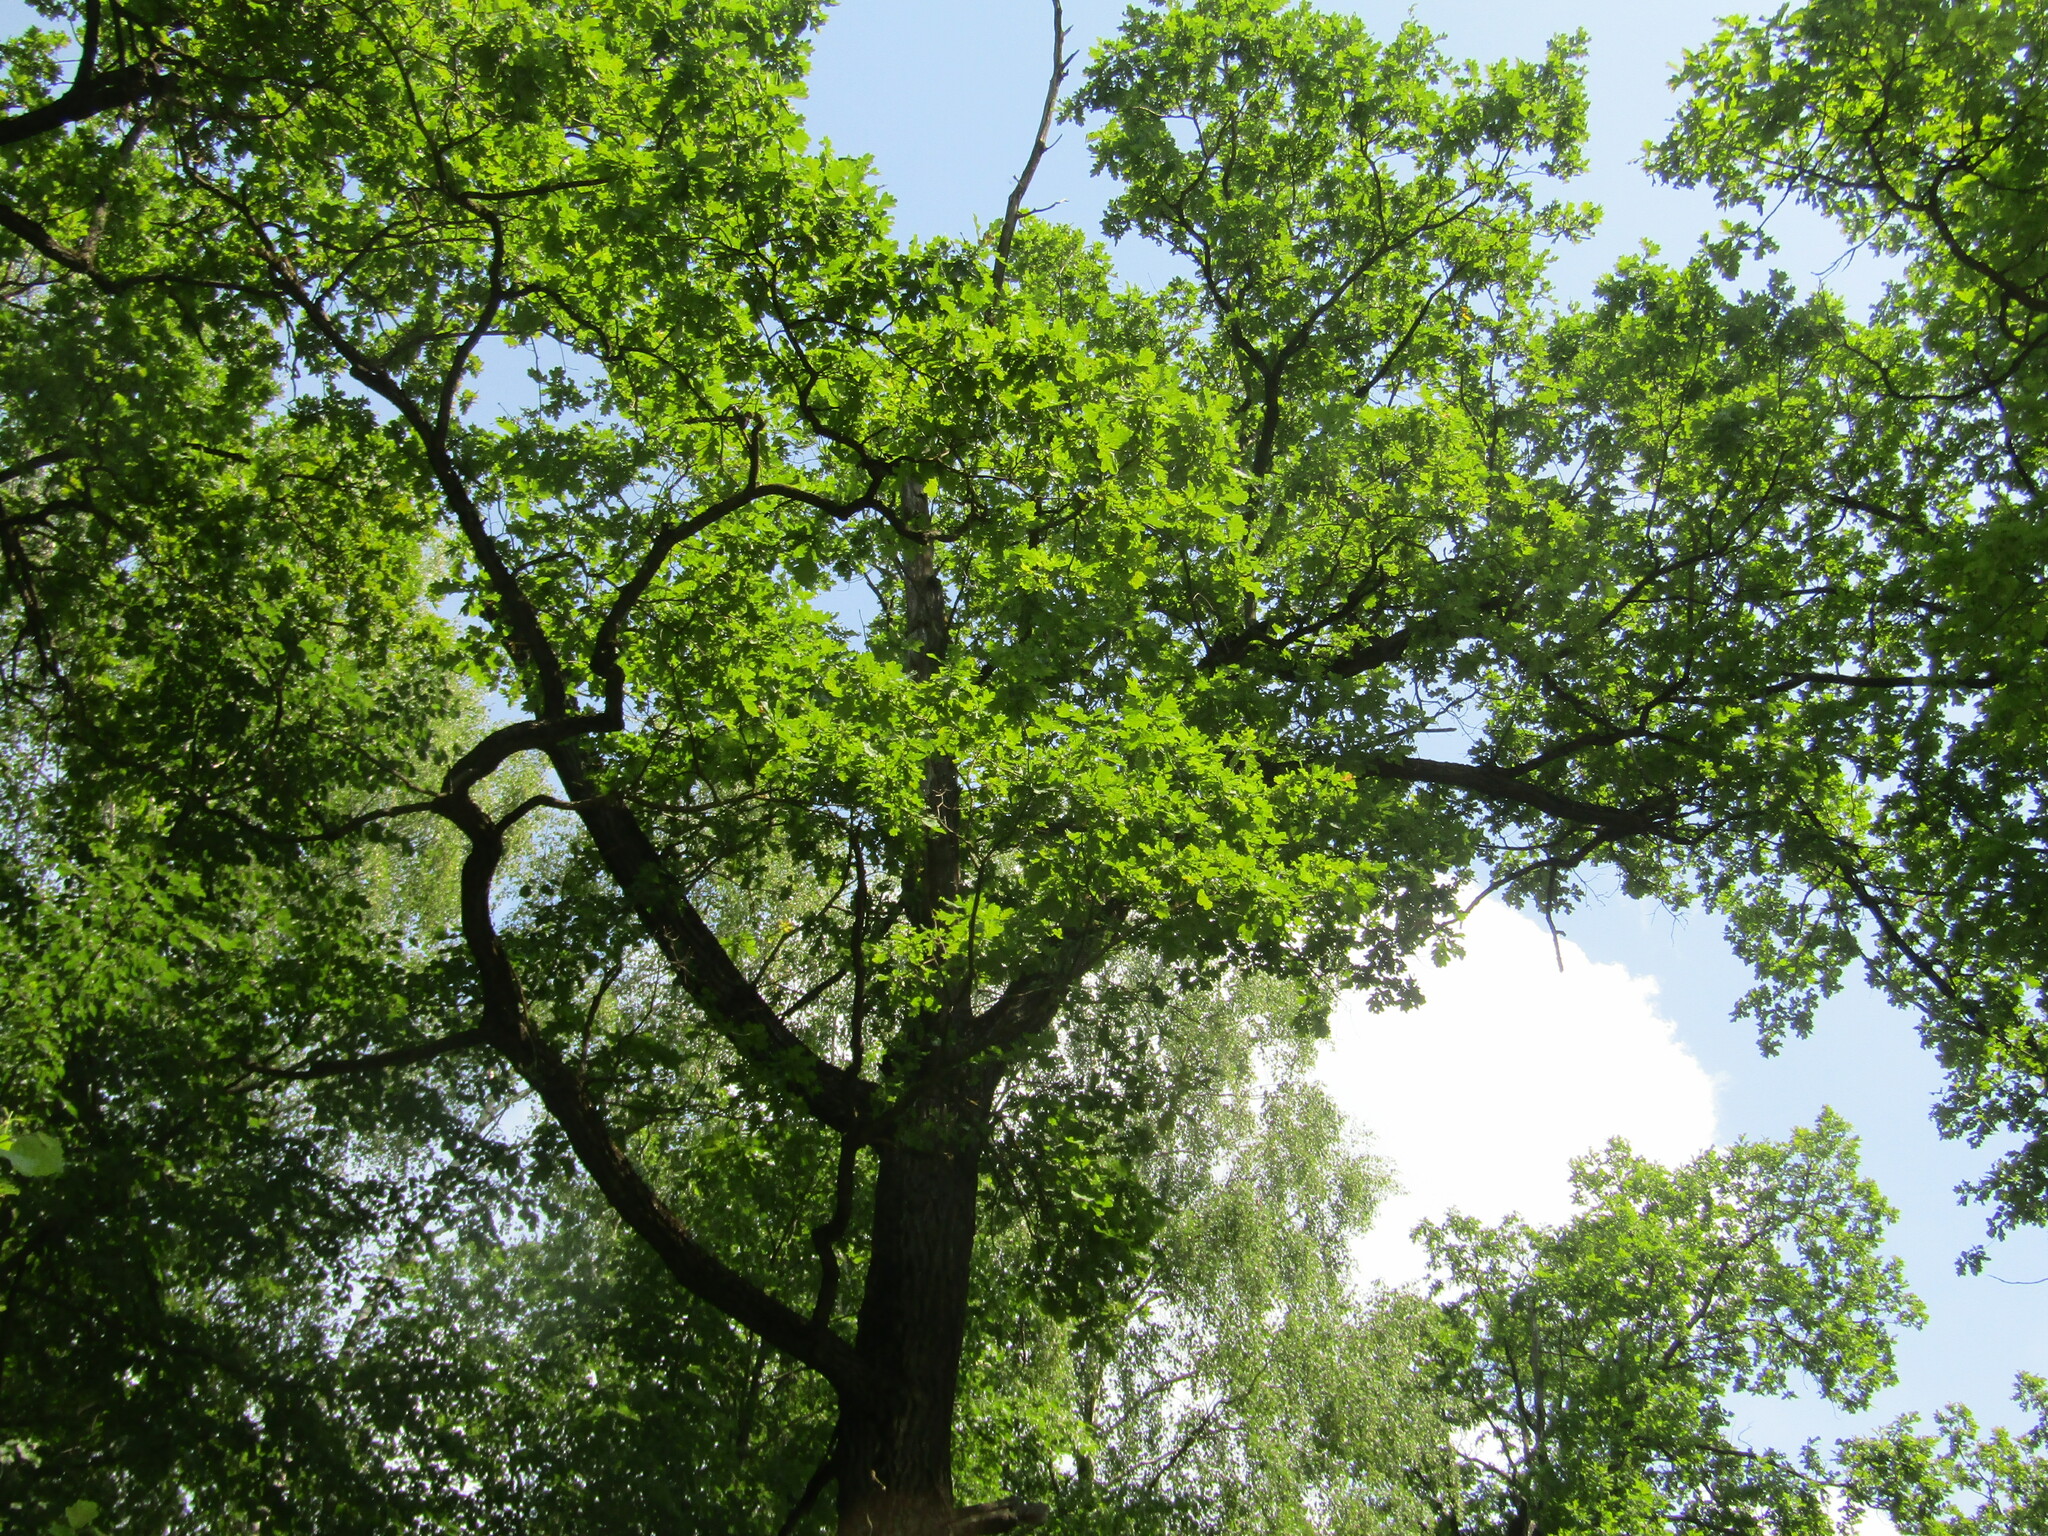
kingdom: Plantae
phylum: Tracheophyta
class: Magnoliopsida
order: Fagales
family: Fagaceae
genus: Quercus
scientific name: Quercus robur
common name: Pedunculate oak
